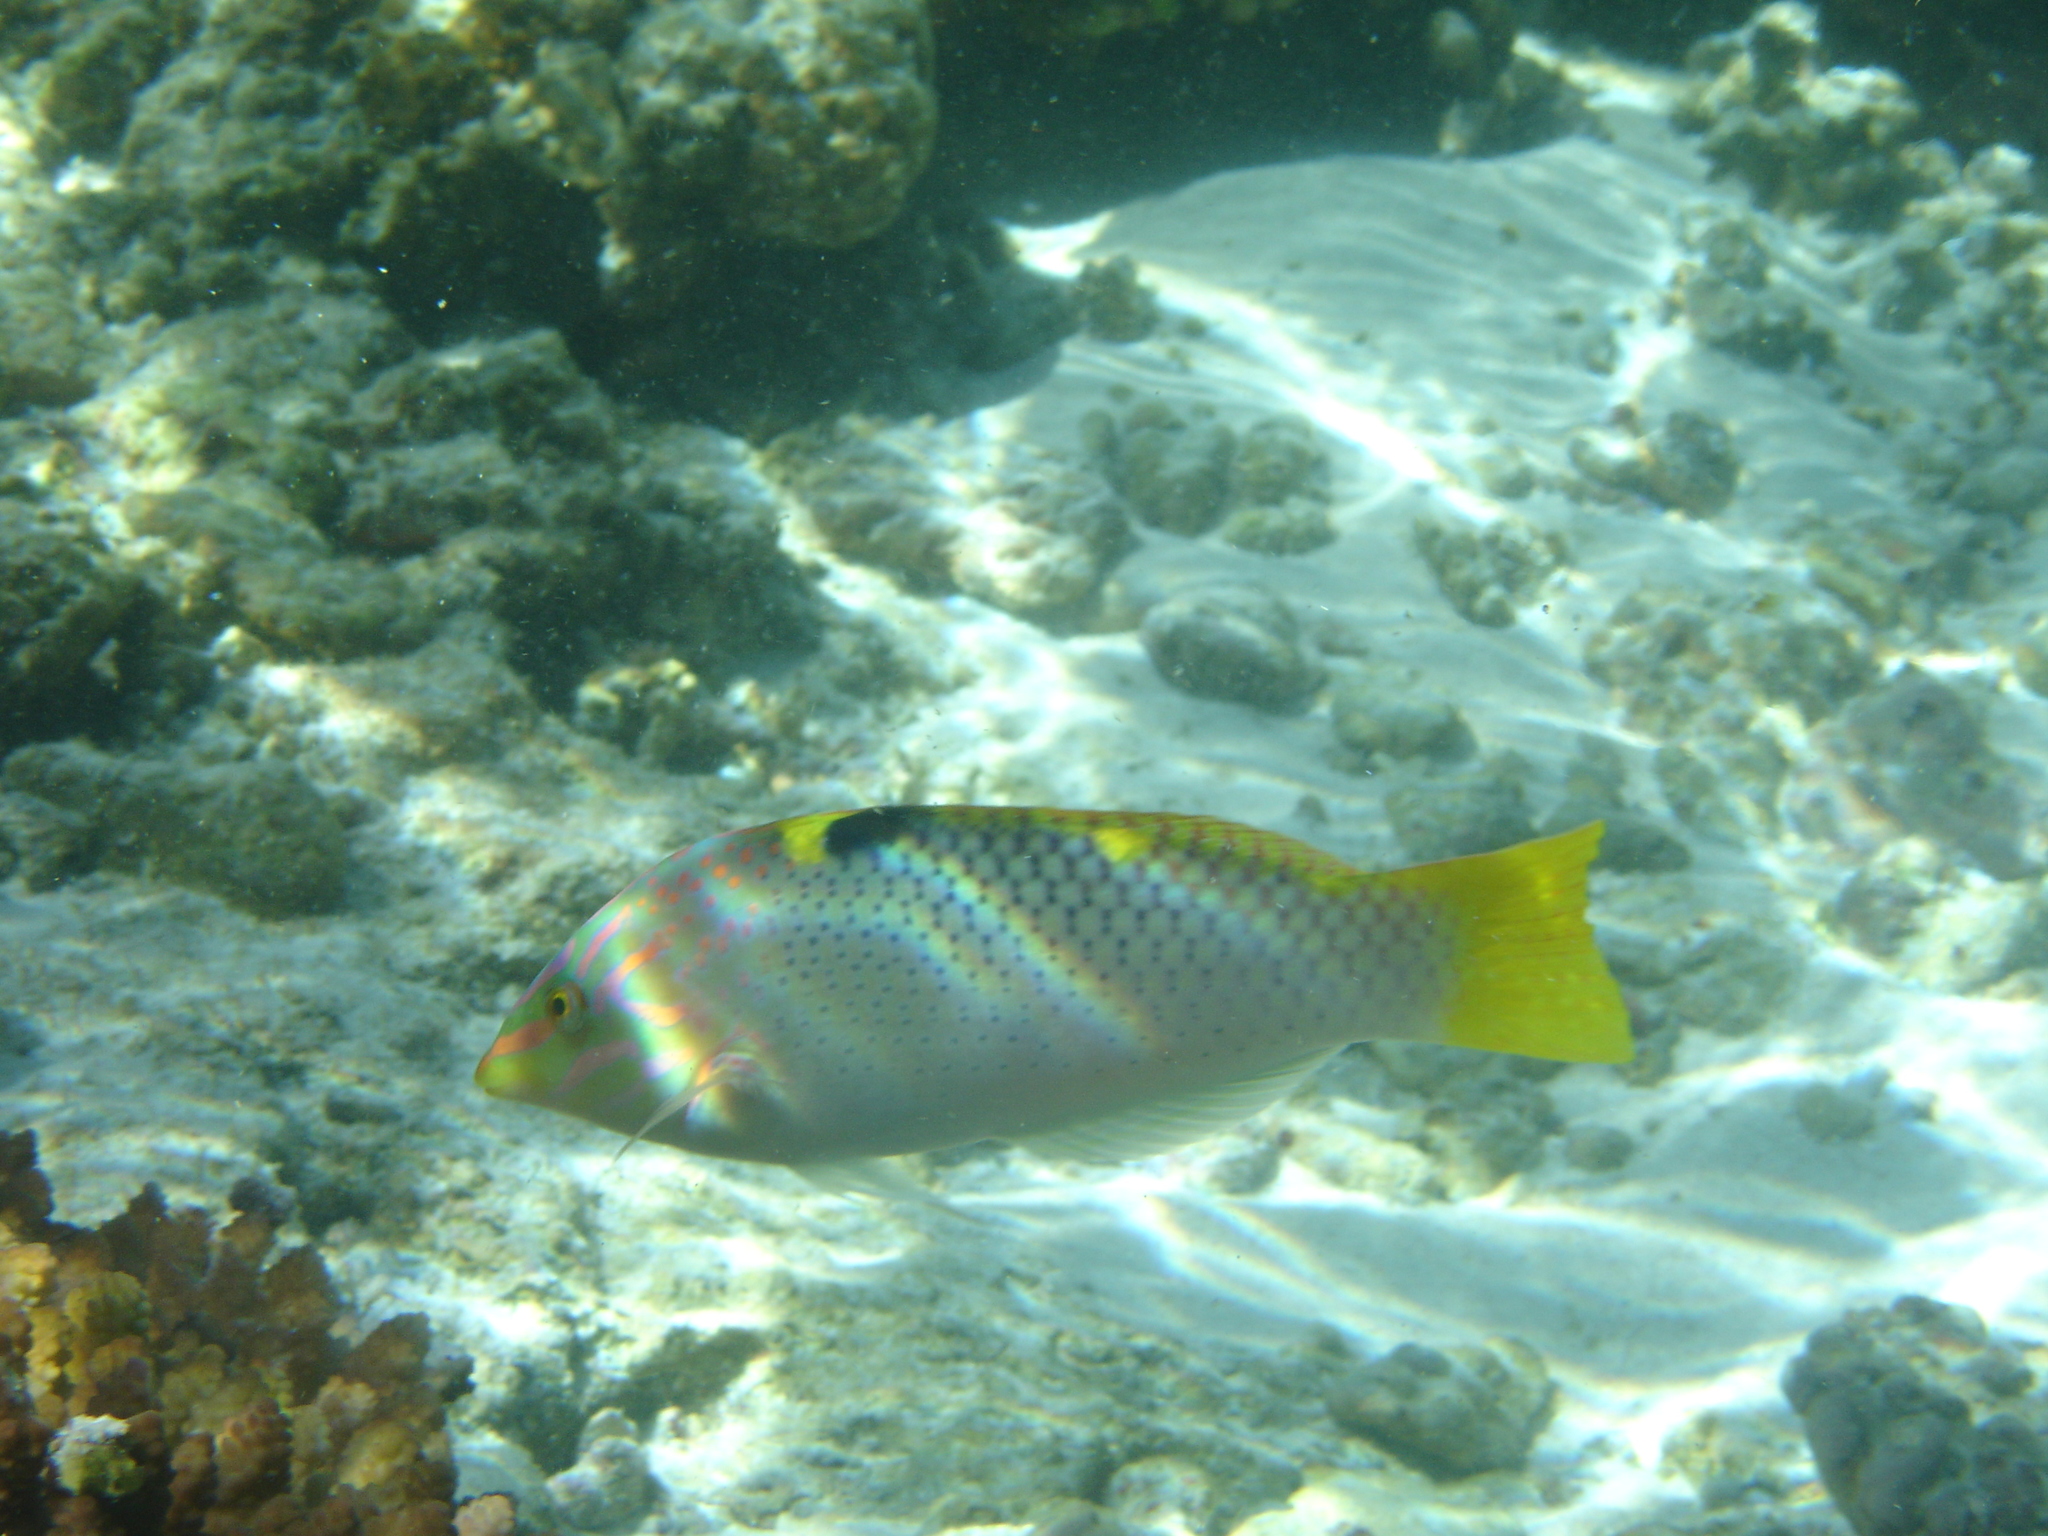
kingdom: Animalia
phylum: Chordata
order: Perciformes
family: Labridae
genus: Halichoeres
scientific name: Halichoeres hortulanus
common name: Checkerboard wrasse
